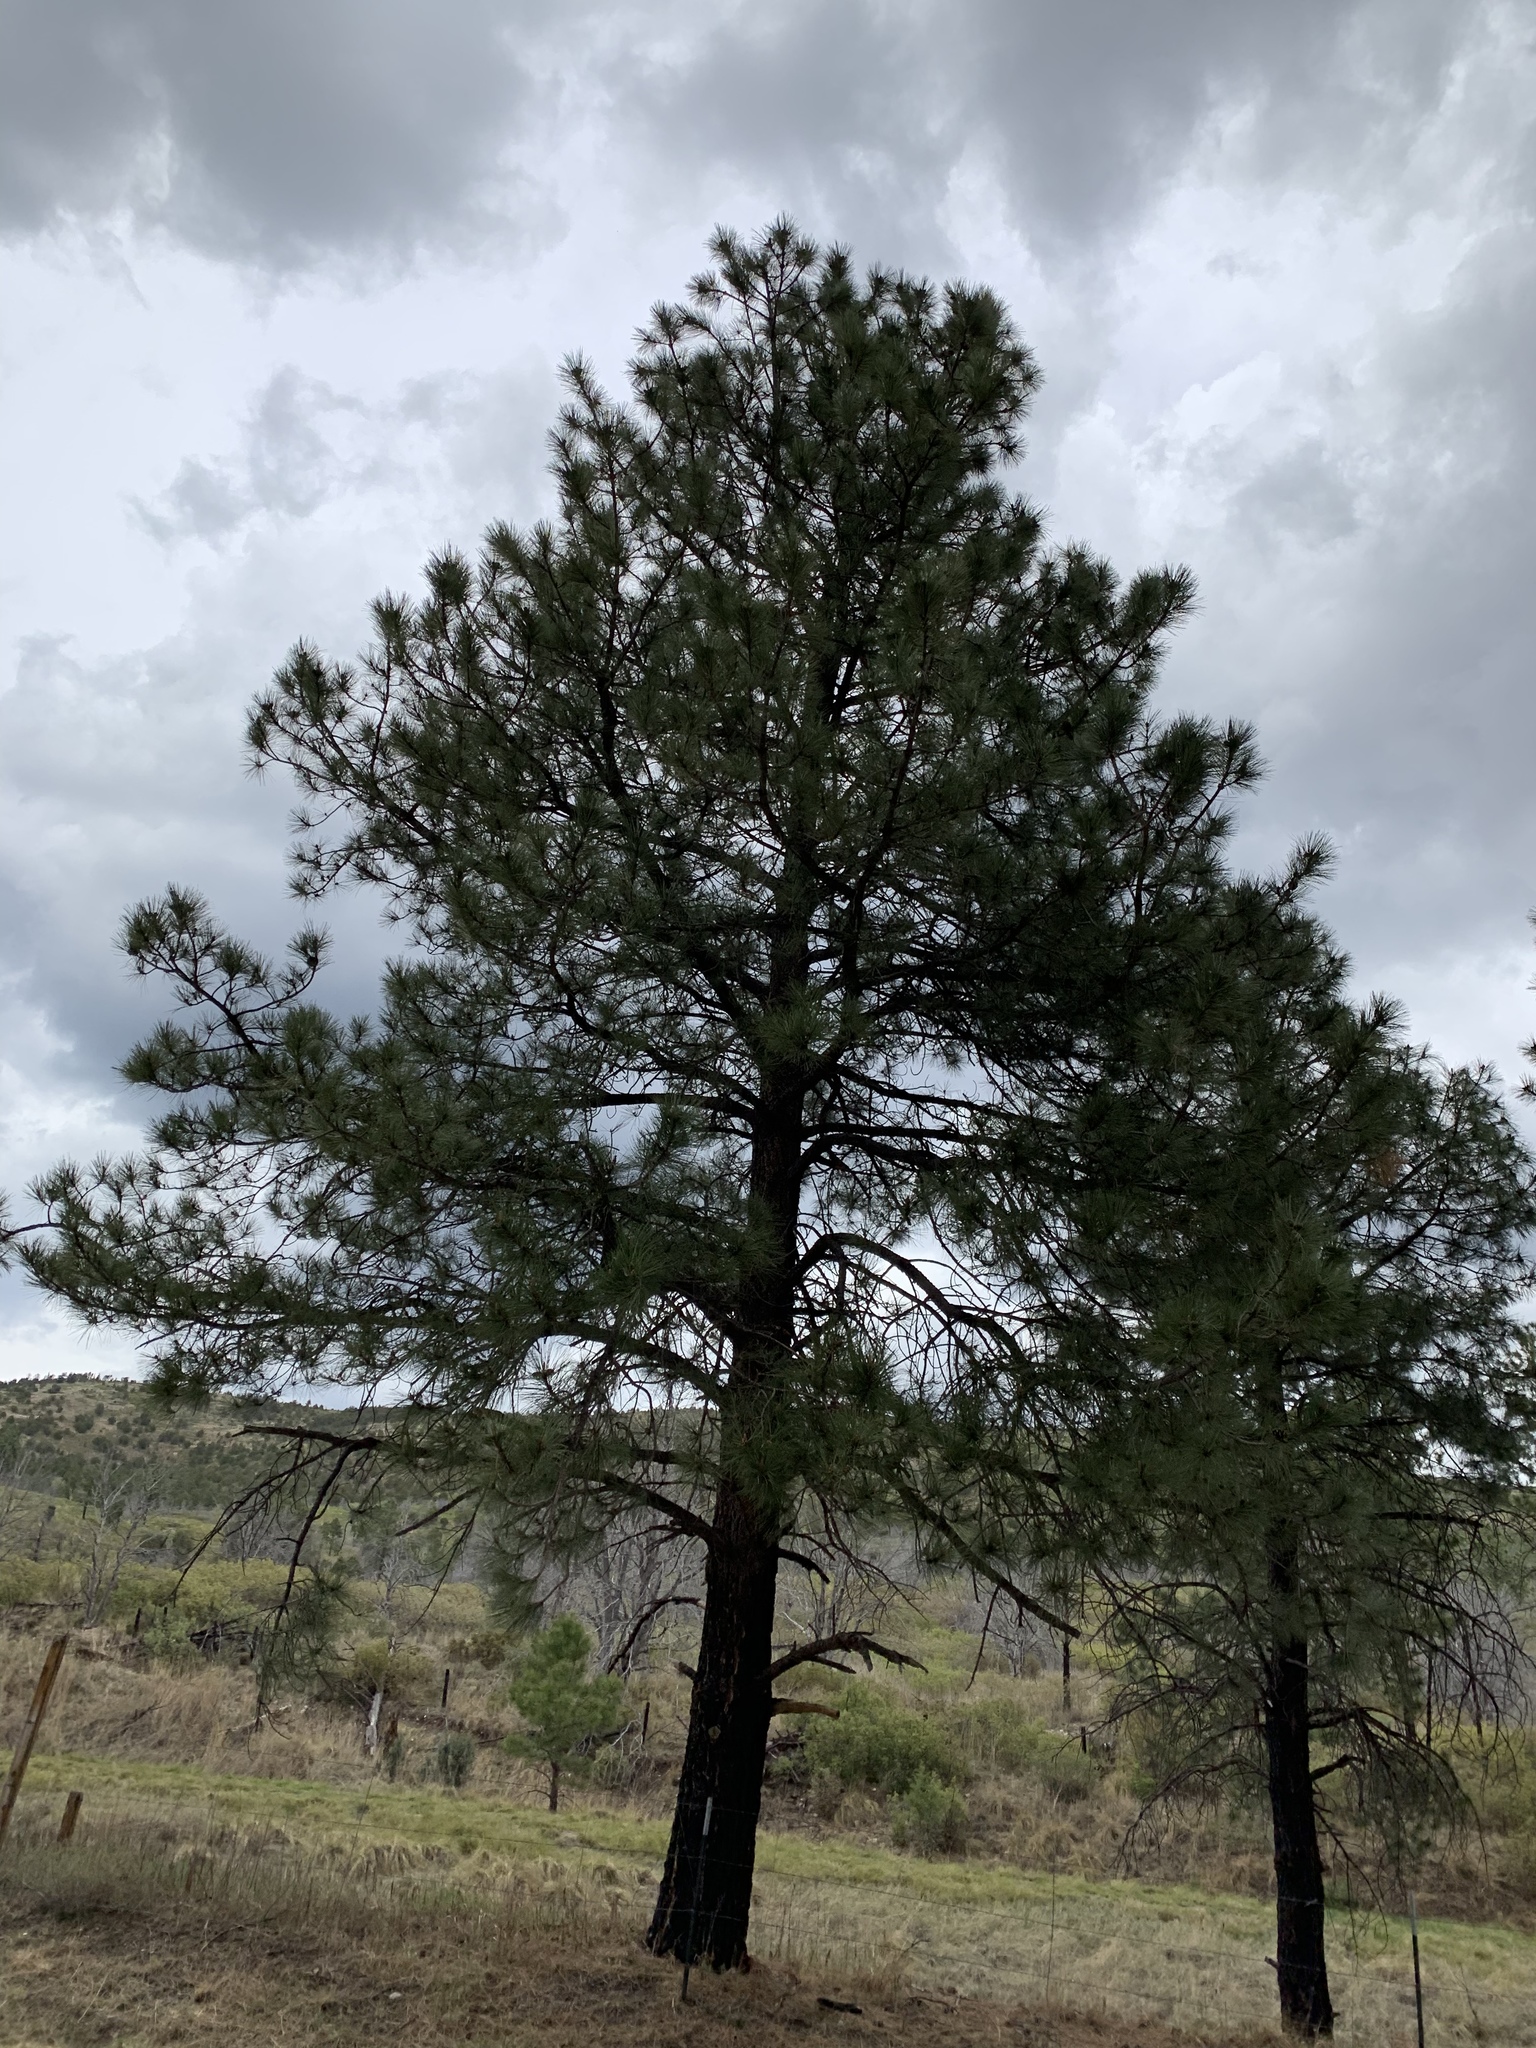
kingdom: Plantae
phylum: Tracheophyta
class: Pinopsida
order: Pinales
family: Pinaceae
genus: Pinus
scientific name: Pinus ponderosa
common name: Western yellow-pine
